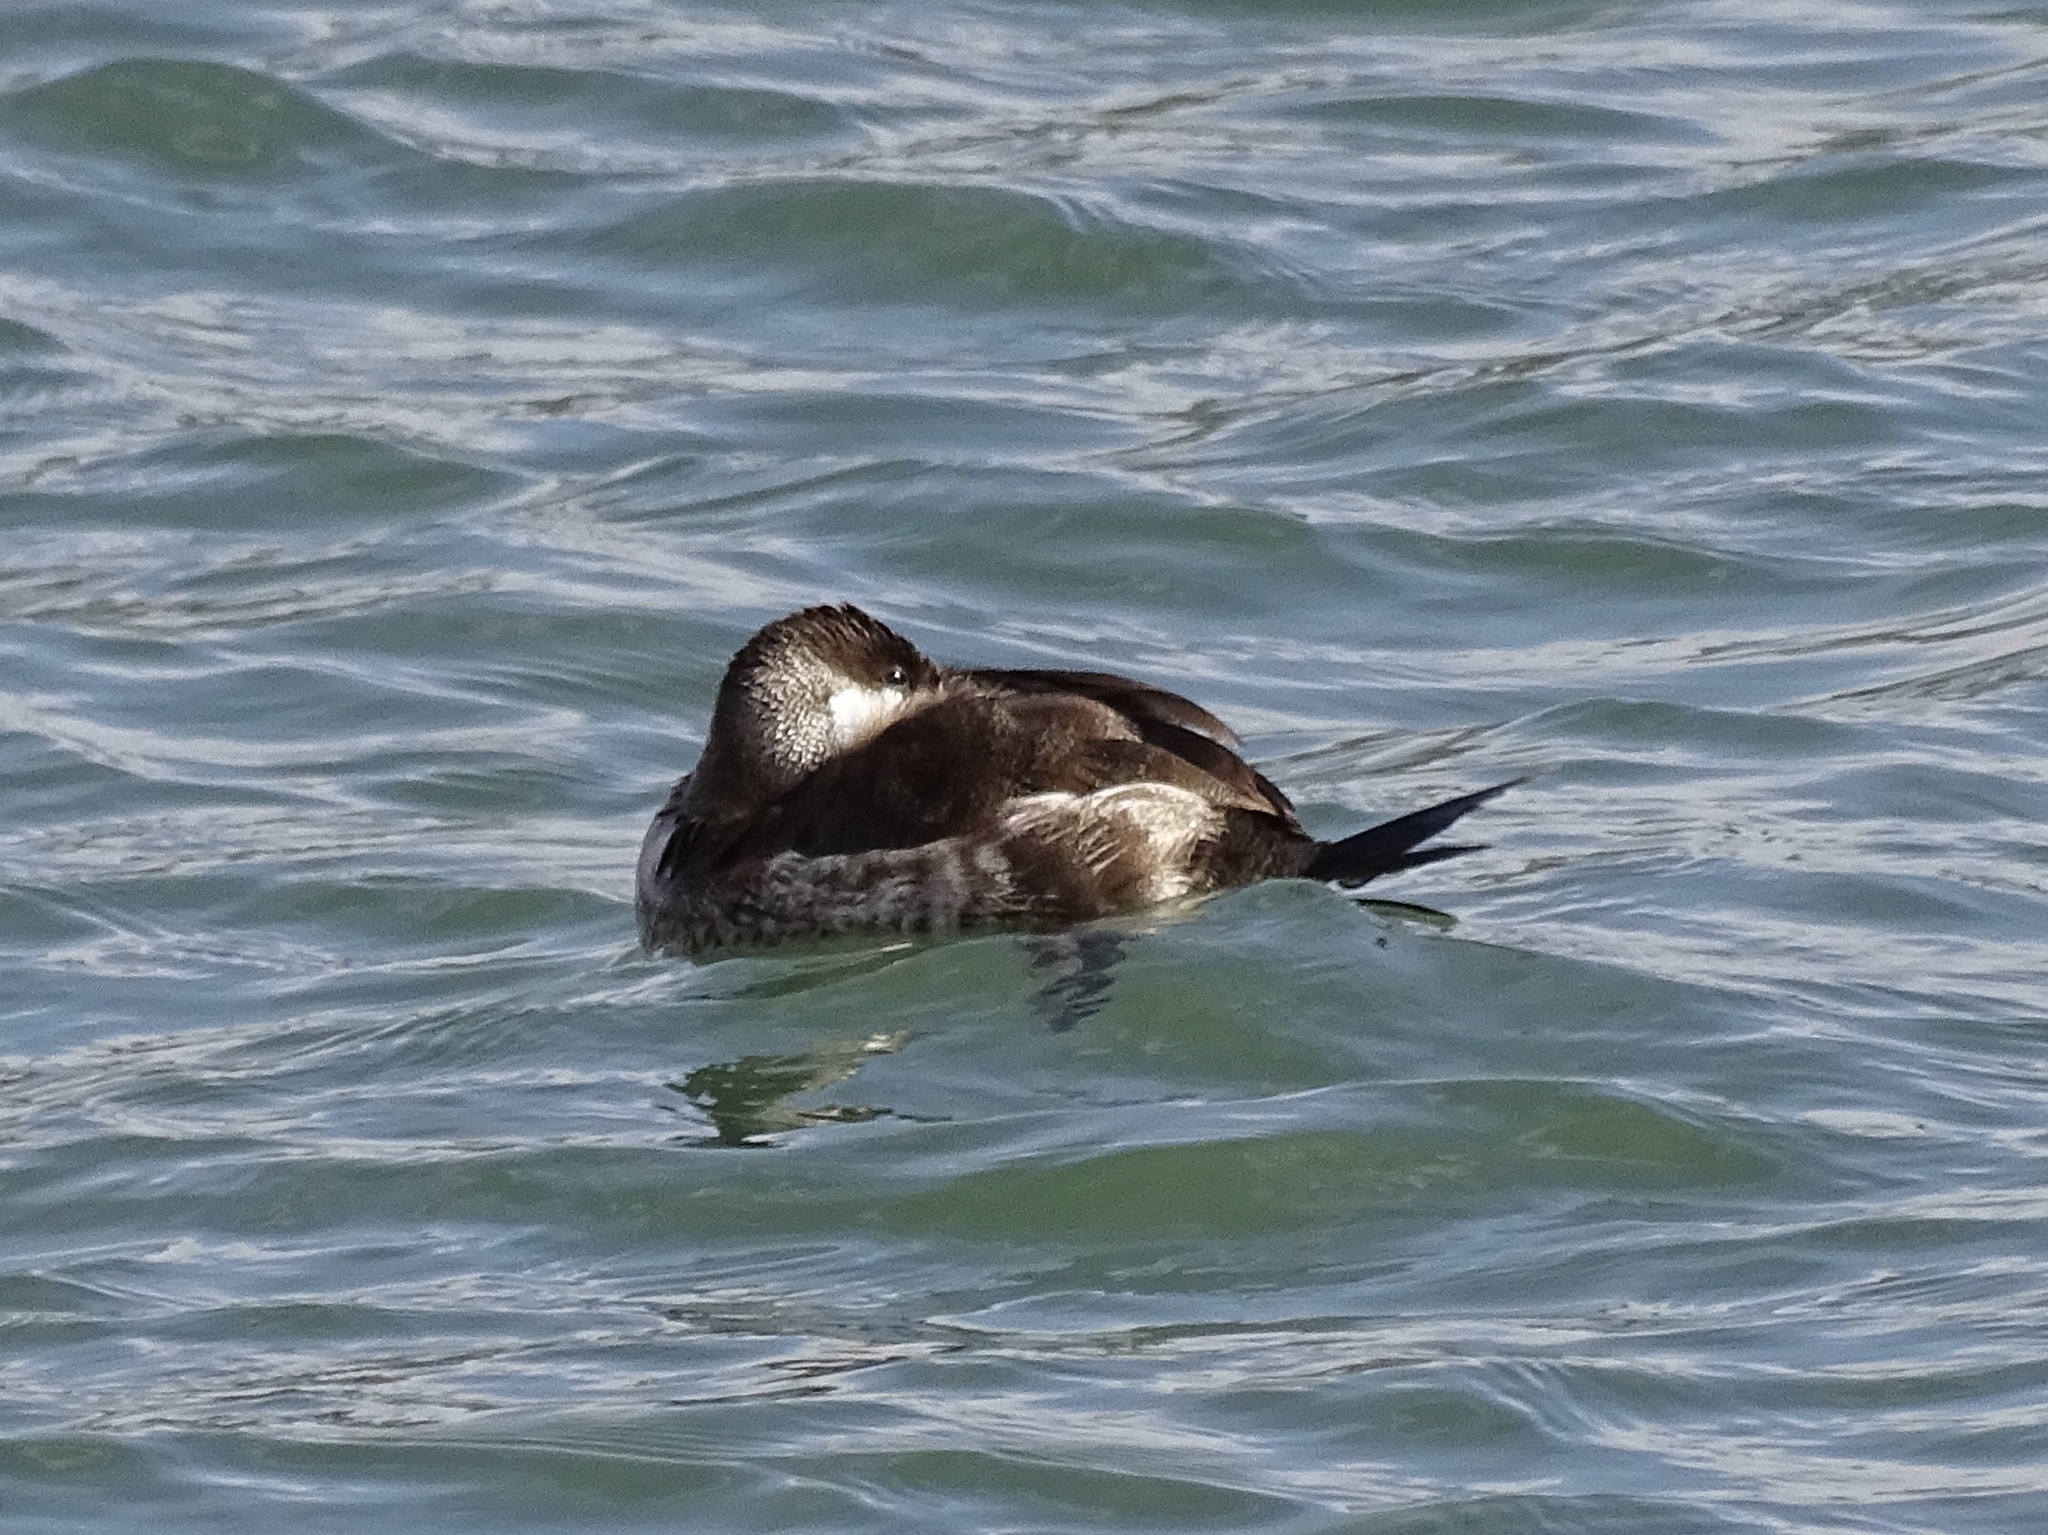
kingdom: Animalia
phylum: Chordata
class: Aves
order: Anseriformes
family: Anatidae
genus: Oxyura
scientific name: Oxyura jamaicensis
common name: Ruddy duck
